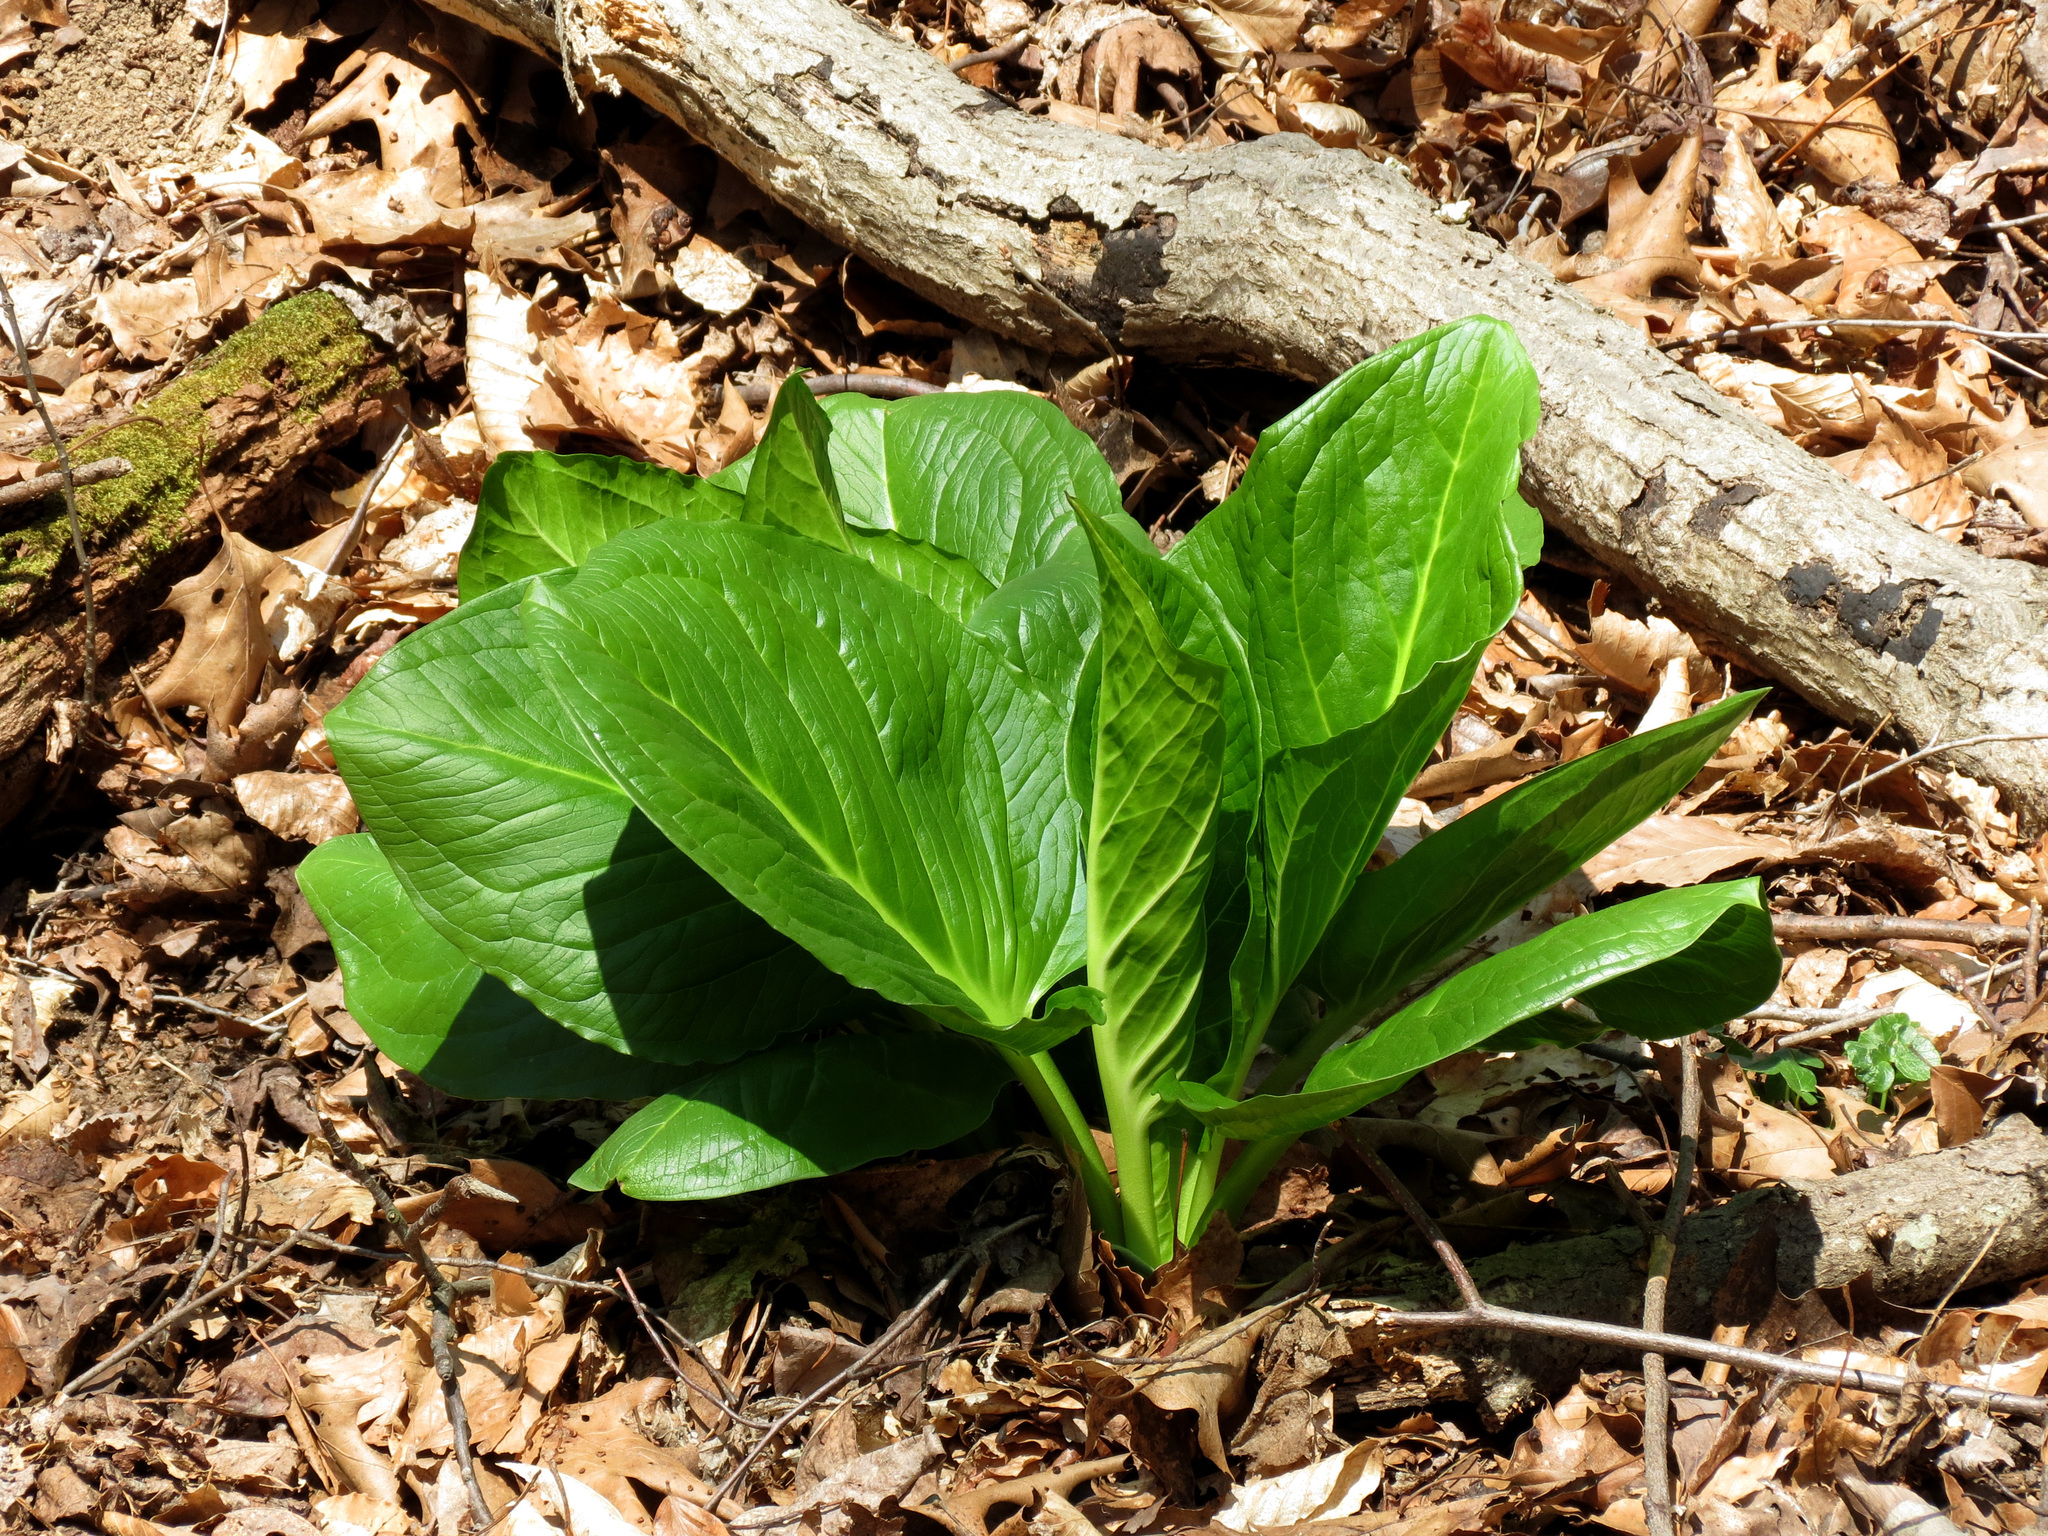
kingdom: Plantae
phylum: Tracheophyta
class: Liliopsida
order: Alismatales
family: Araceae
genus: Symplocarpus
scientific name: Symplocarpus foetidus
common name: Eastern skunk cabbage
